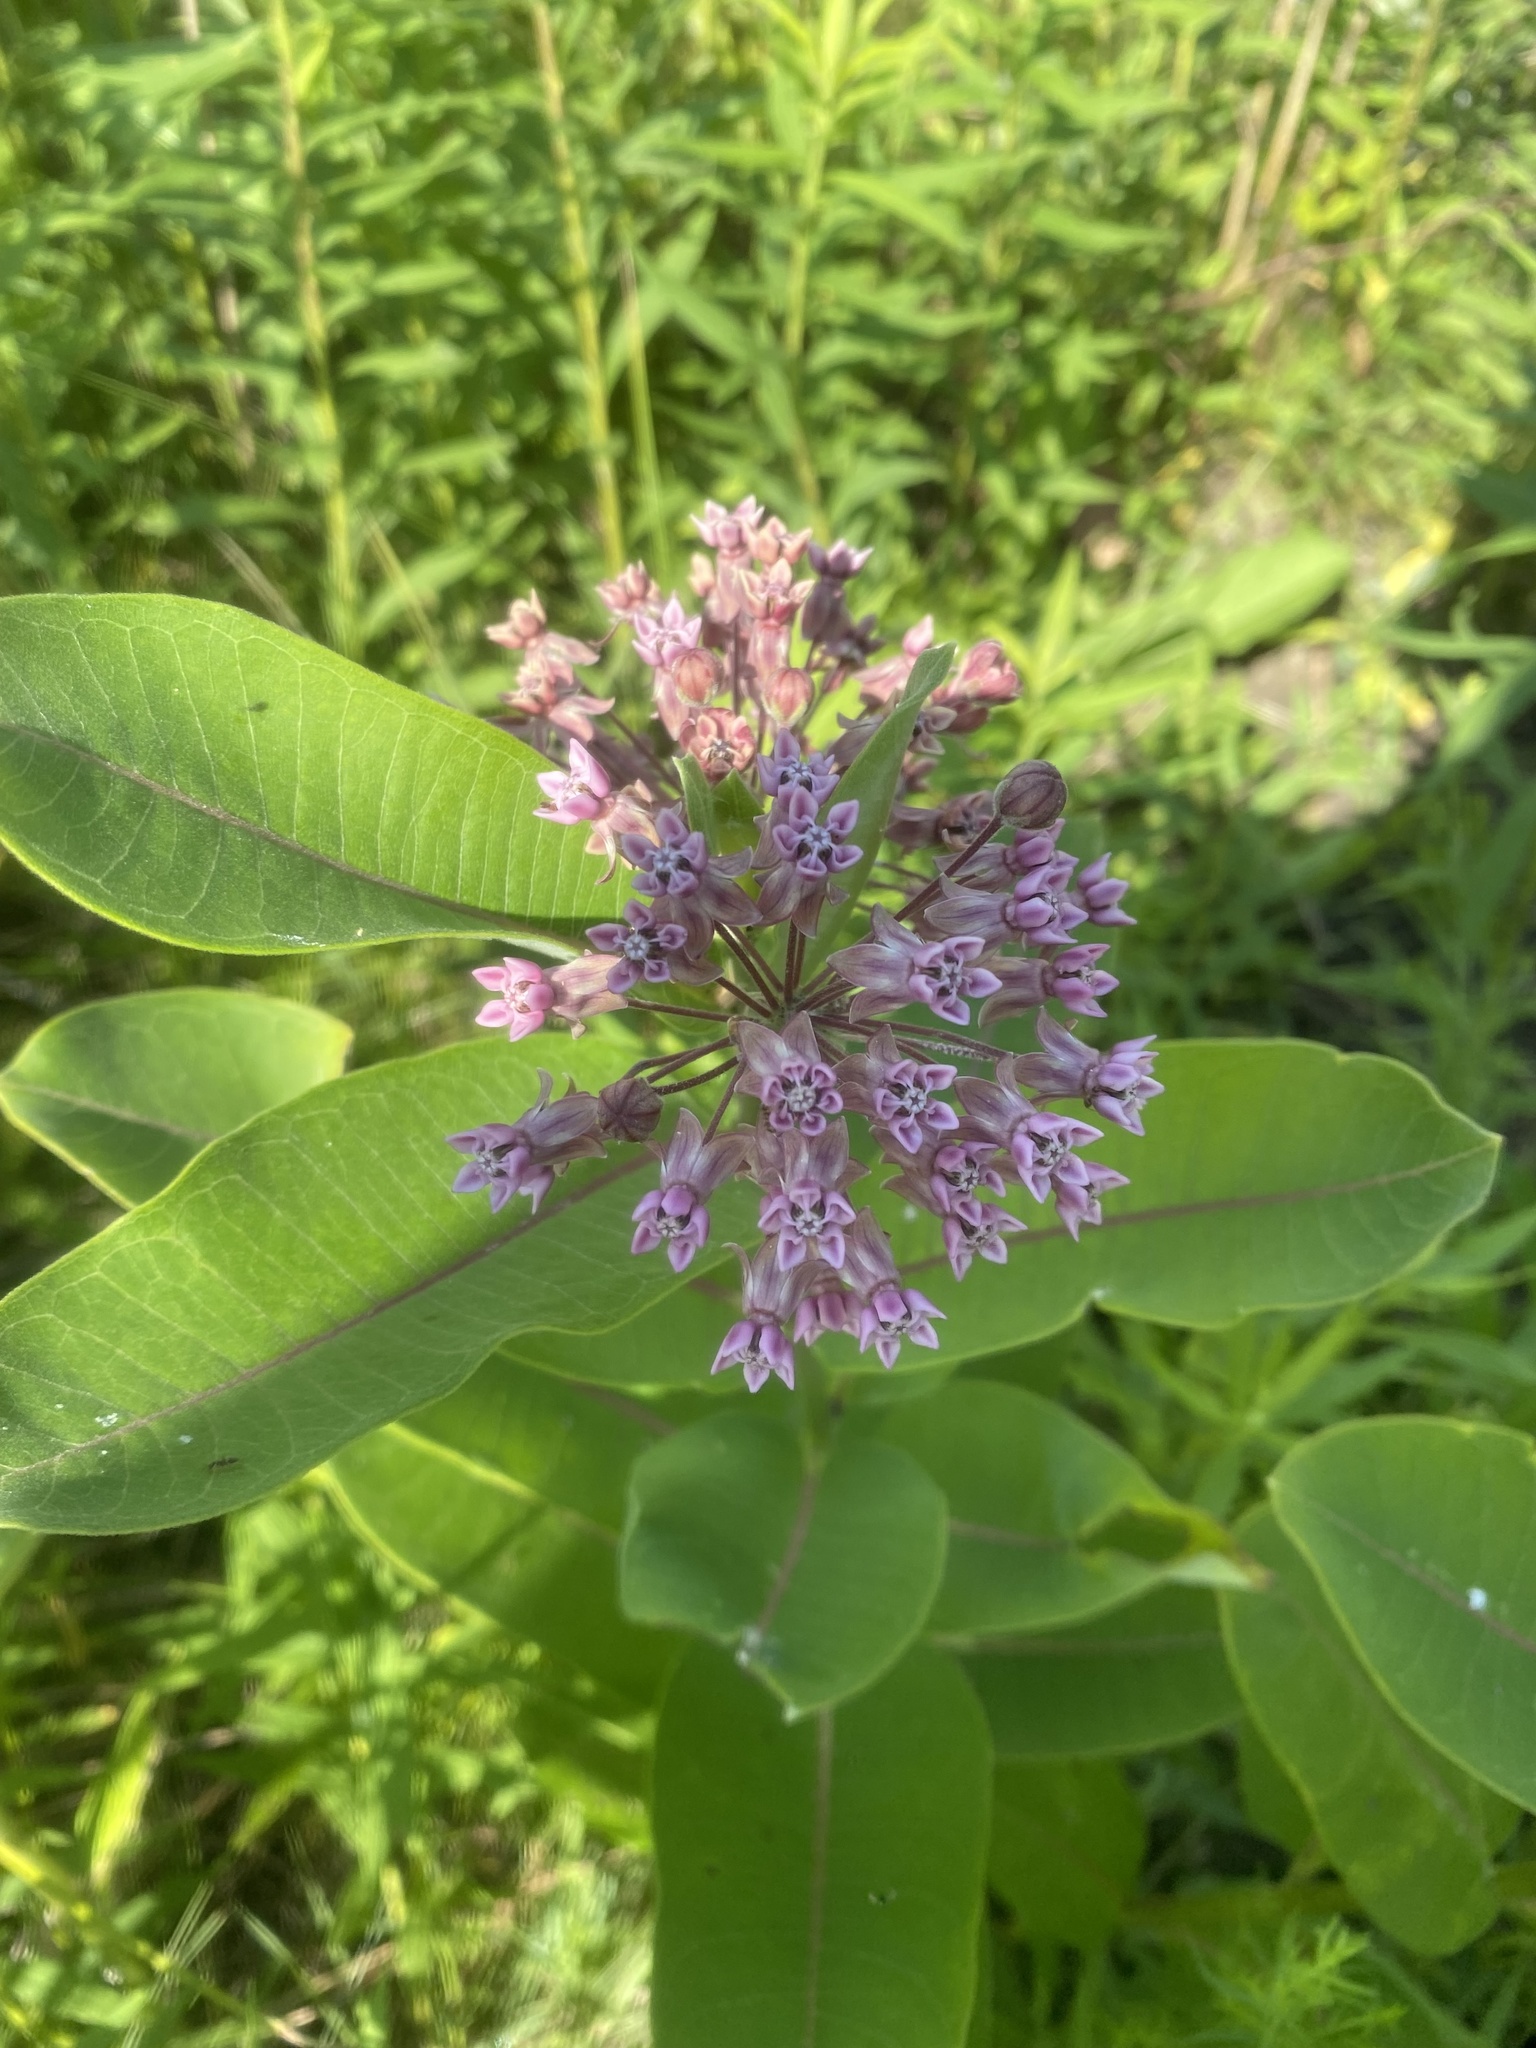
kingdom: Plantae
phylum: Tracheophyta
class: Magnoliopsida
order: Gentianales
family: Apocynaceae
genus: Asclepias
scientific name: Asclepias syriaca
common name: Common milkweed
